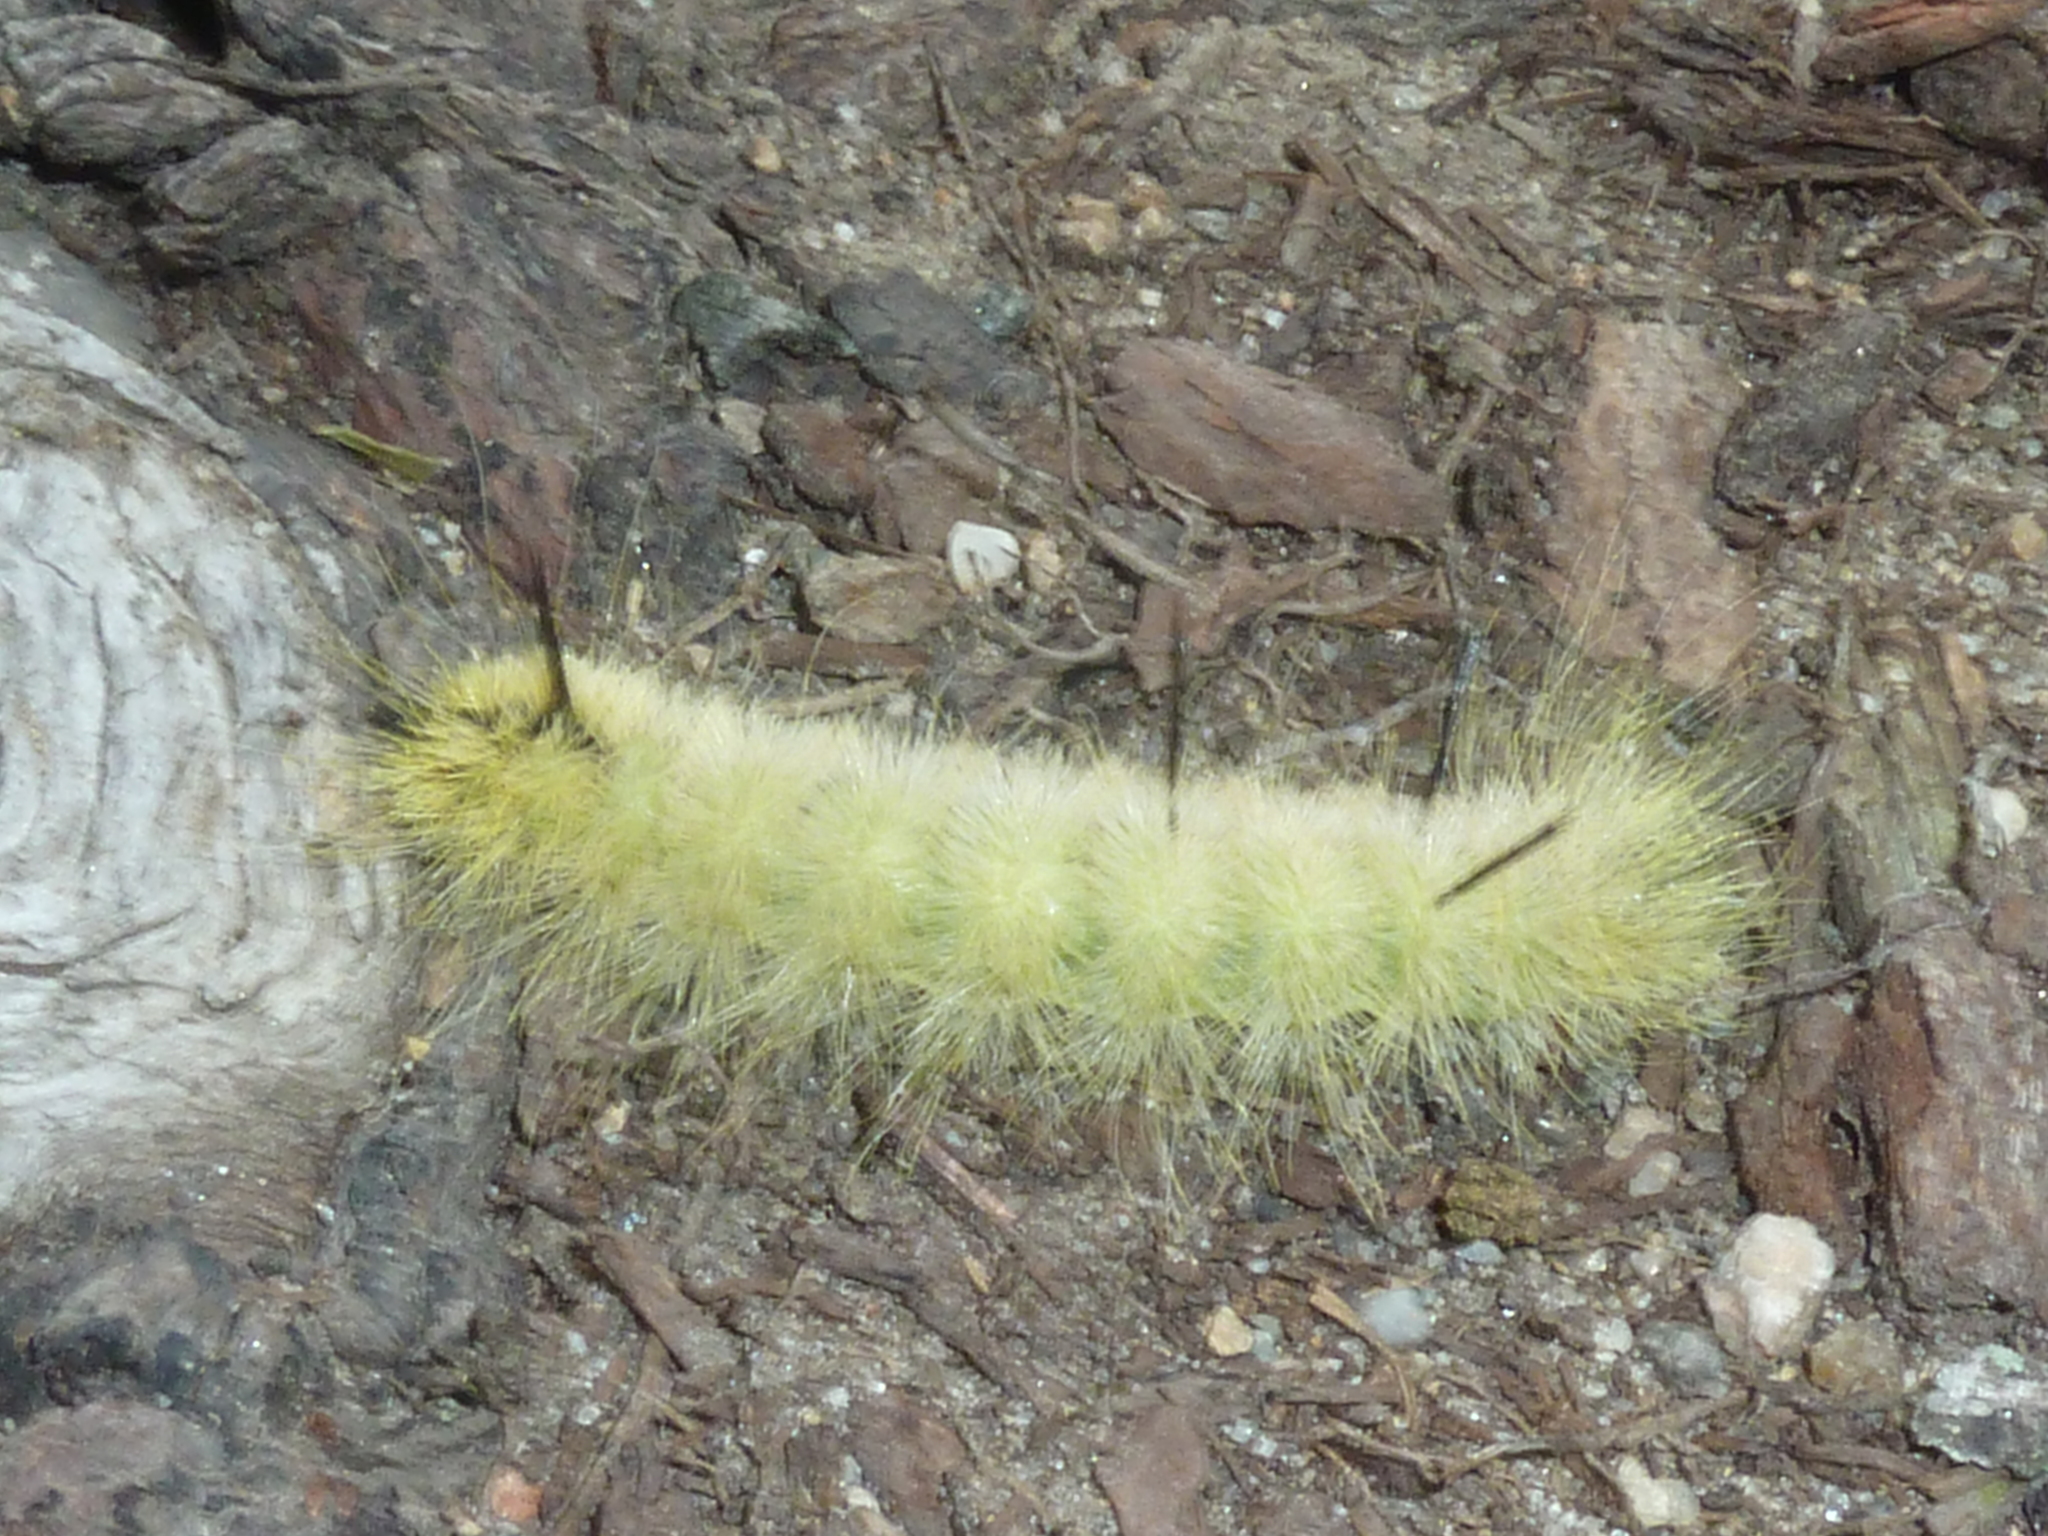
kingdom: Animalia
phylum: Arthropoda
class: Insecta
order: Lepidoptera
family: Noctuidae
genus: Acronicta
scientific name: Acronicta americana
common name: American dagger
